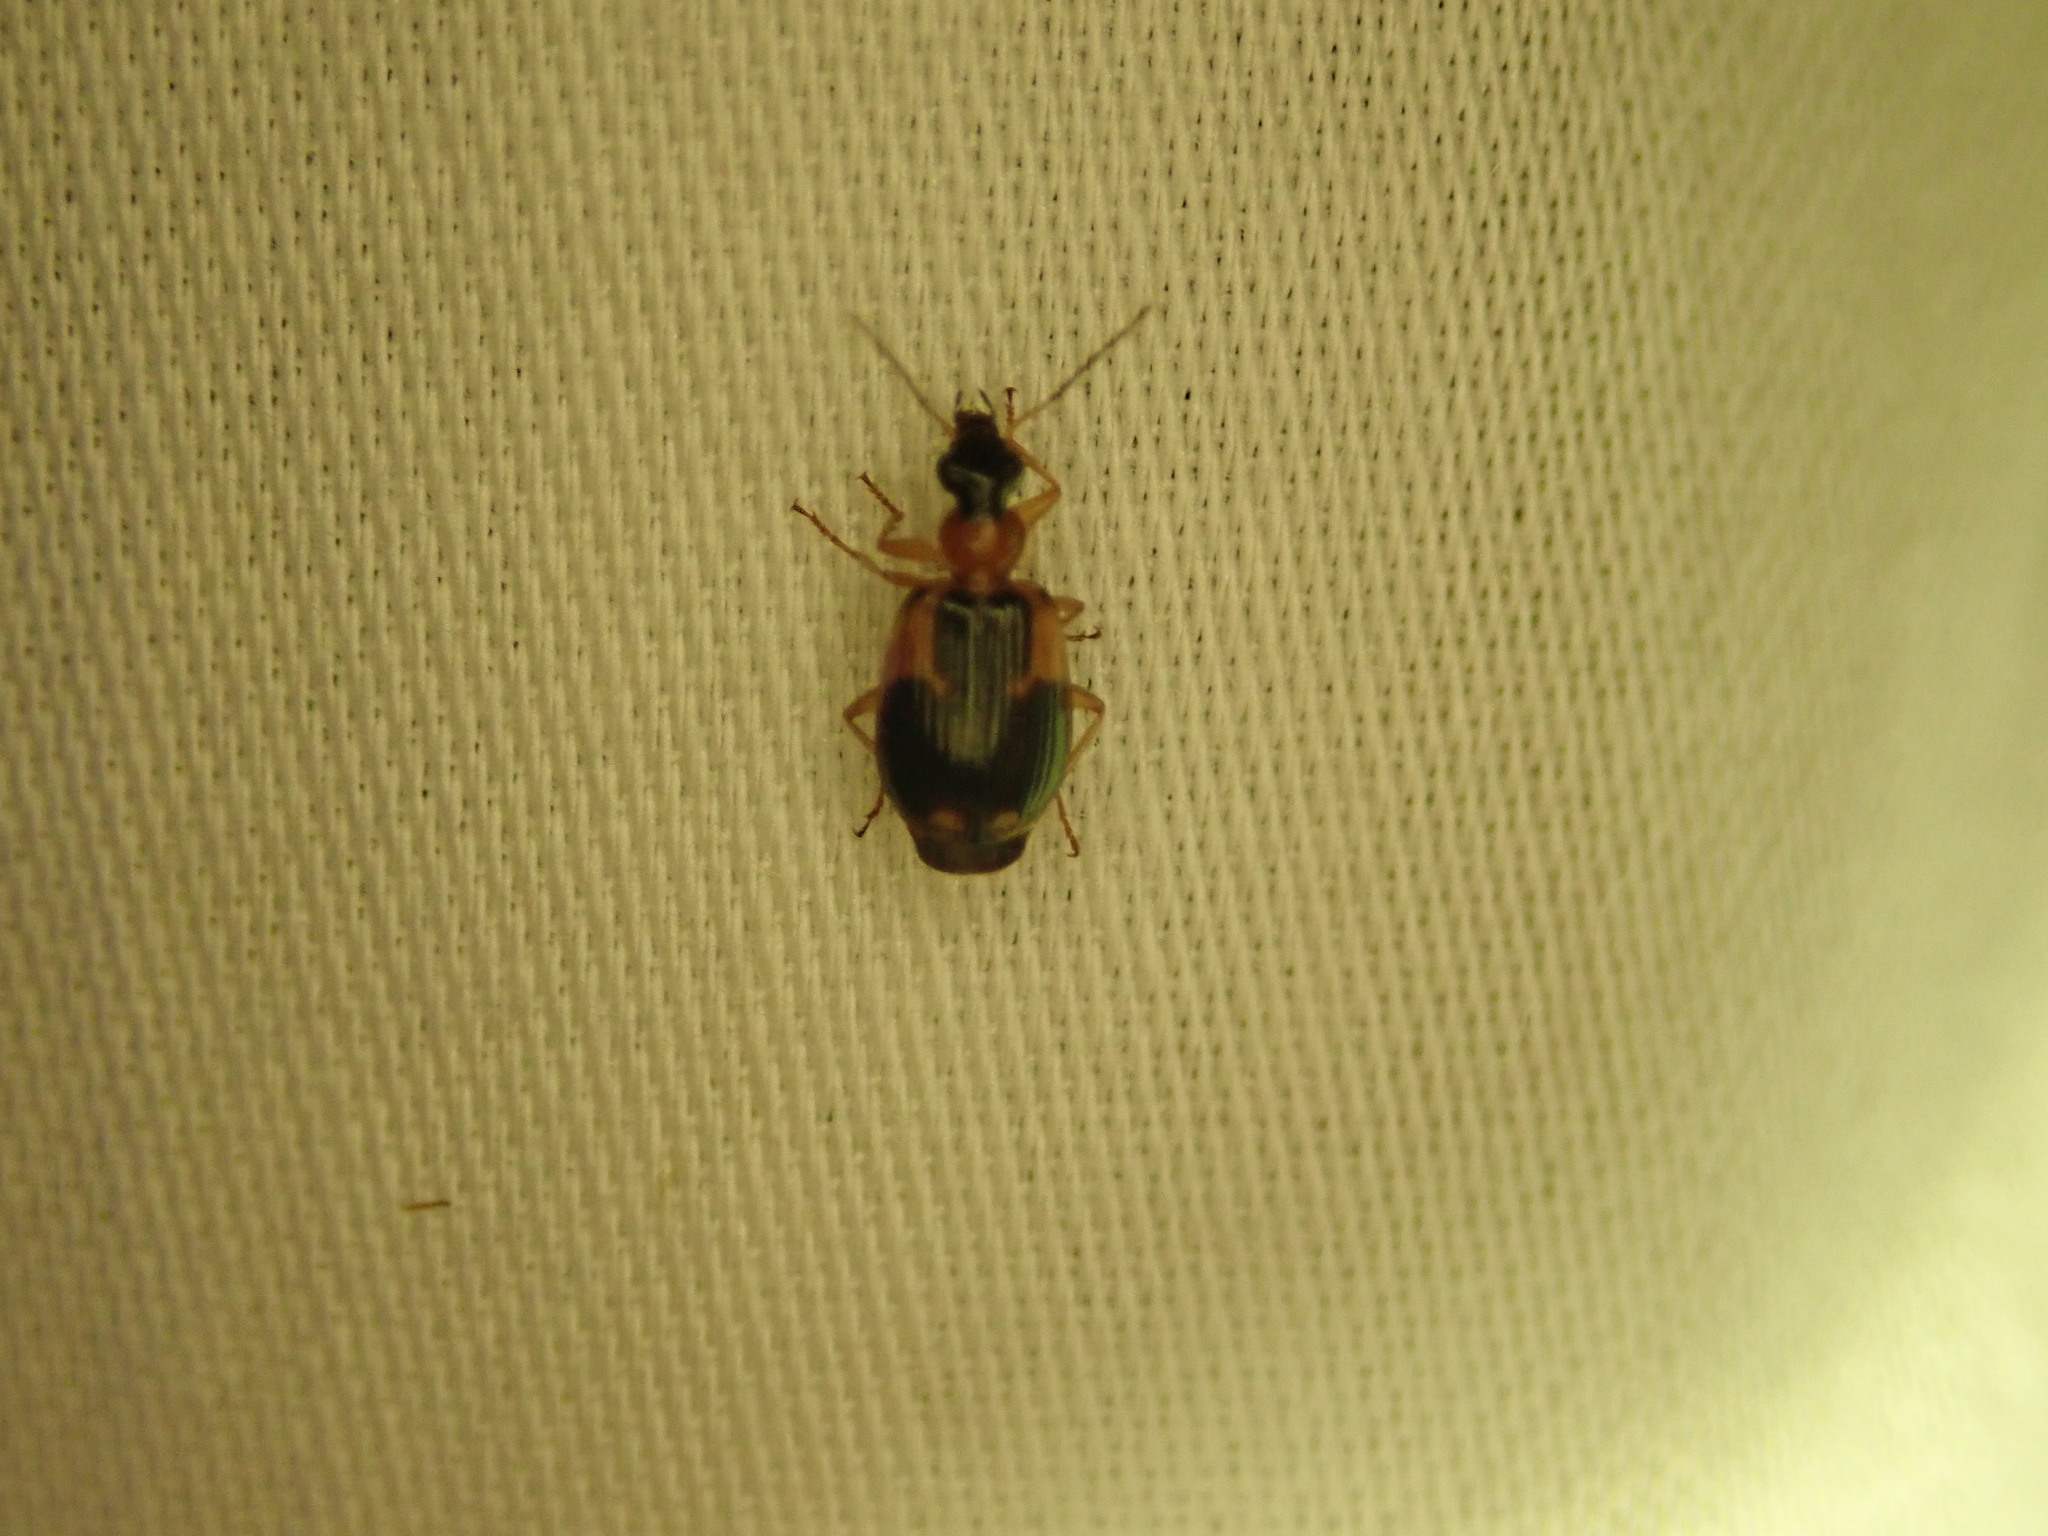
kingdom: Animalia
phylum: Arthropoda
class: Insecta
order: Coleoptera
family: Carabidae
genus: Lebia
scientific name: Lebia analis
